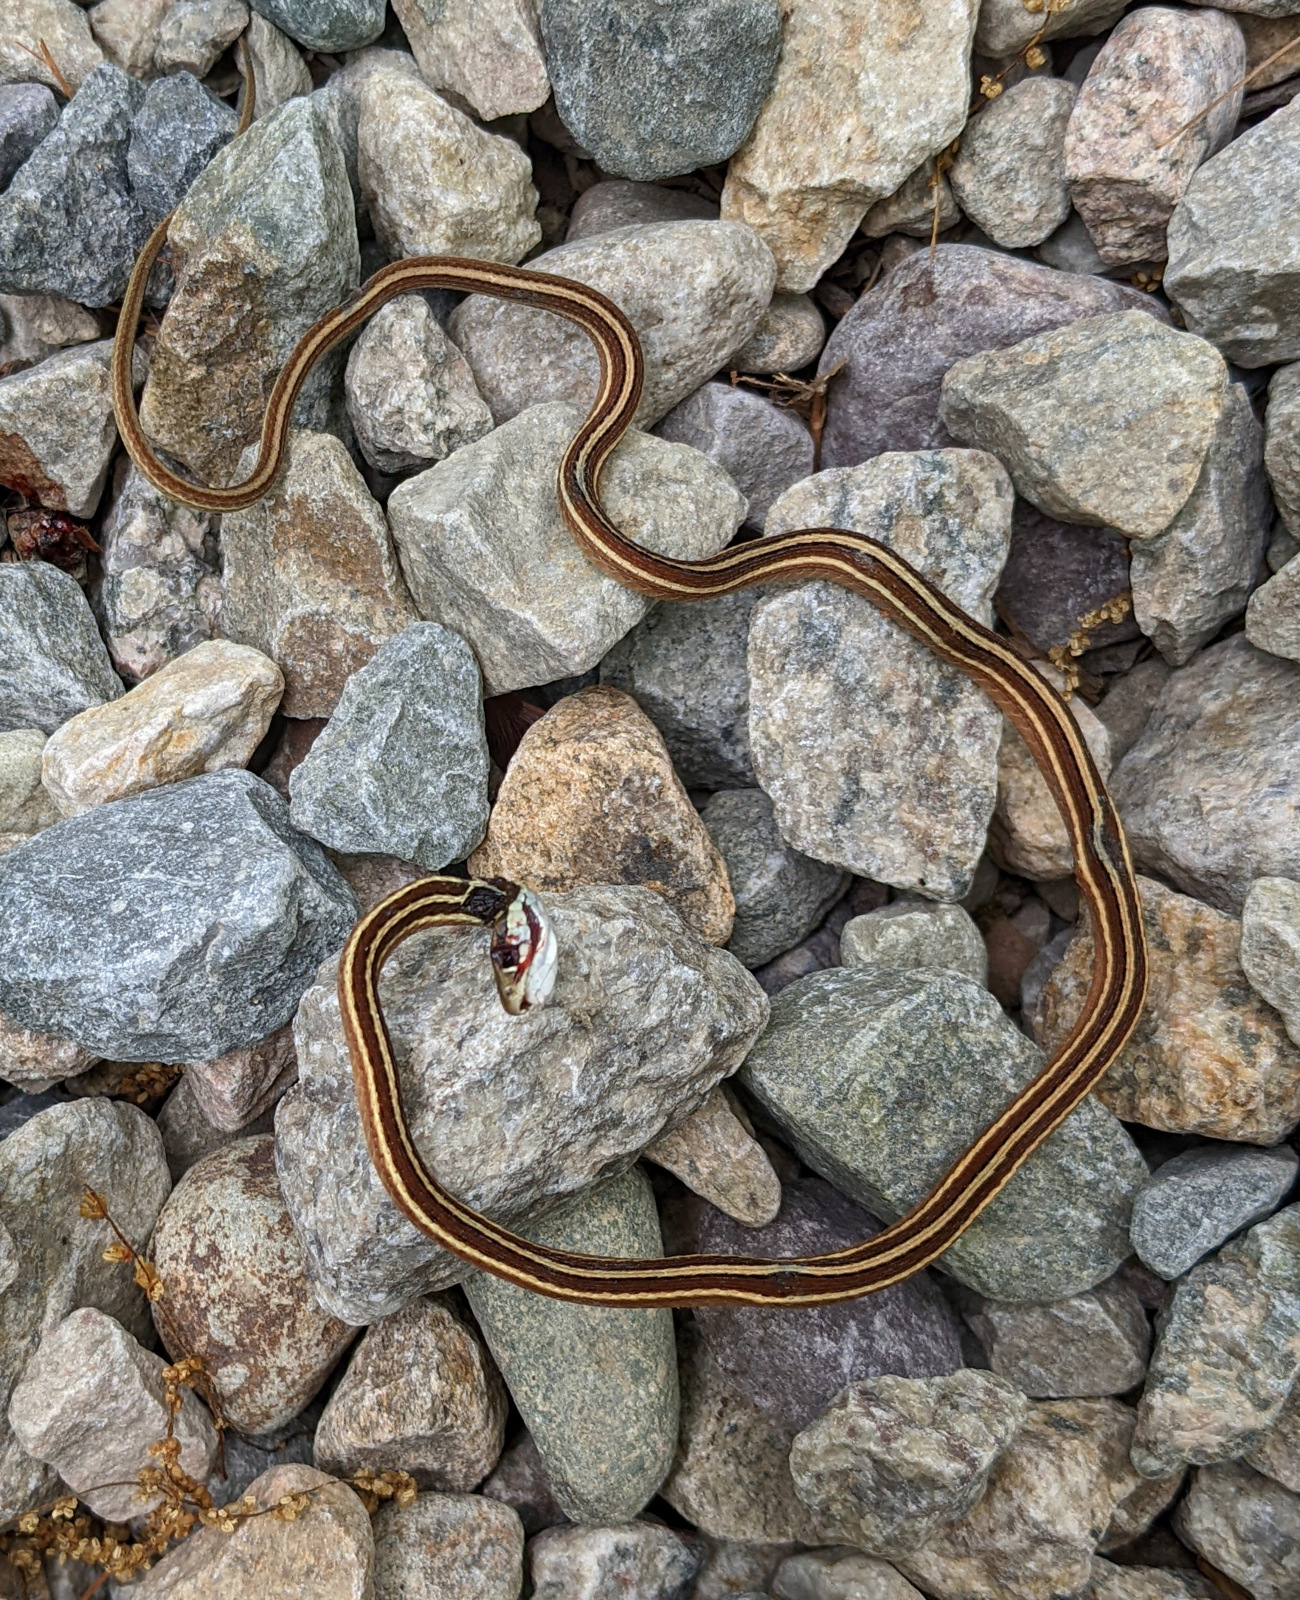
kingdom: Animalia
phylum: Chordata
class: Squamata
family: Colubridae
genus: Thamnophis
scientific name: Thamnophis saurita
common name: Eastern ribbonsnake
